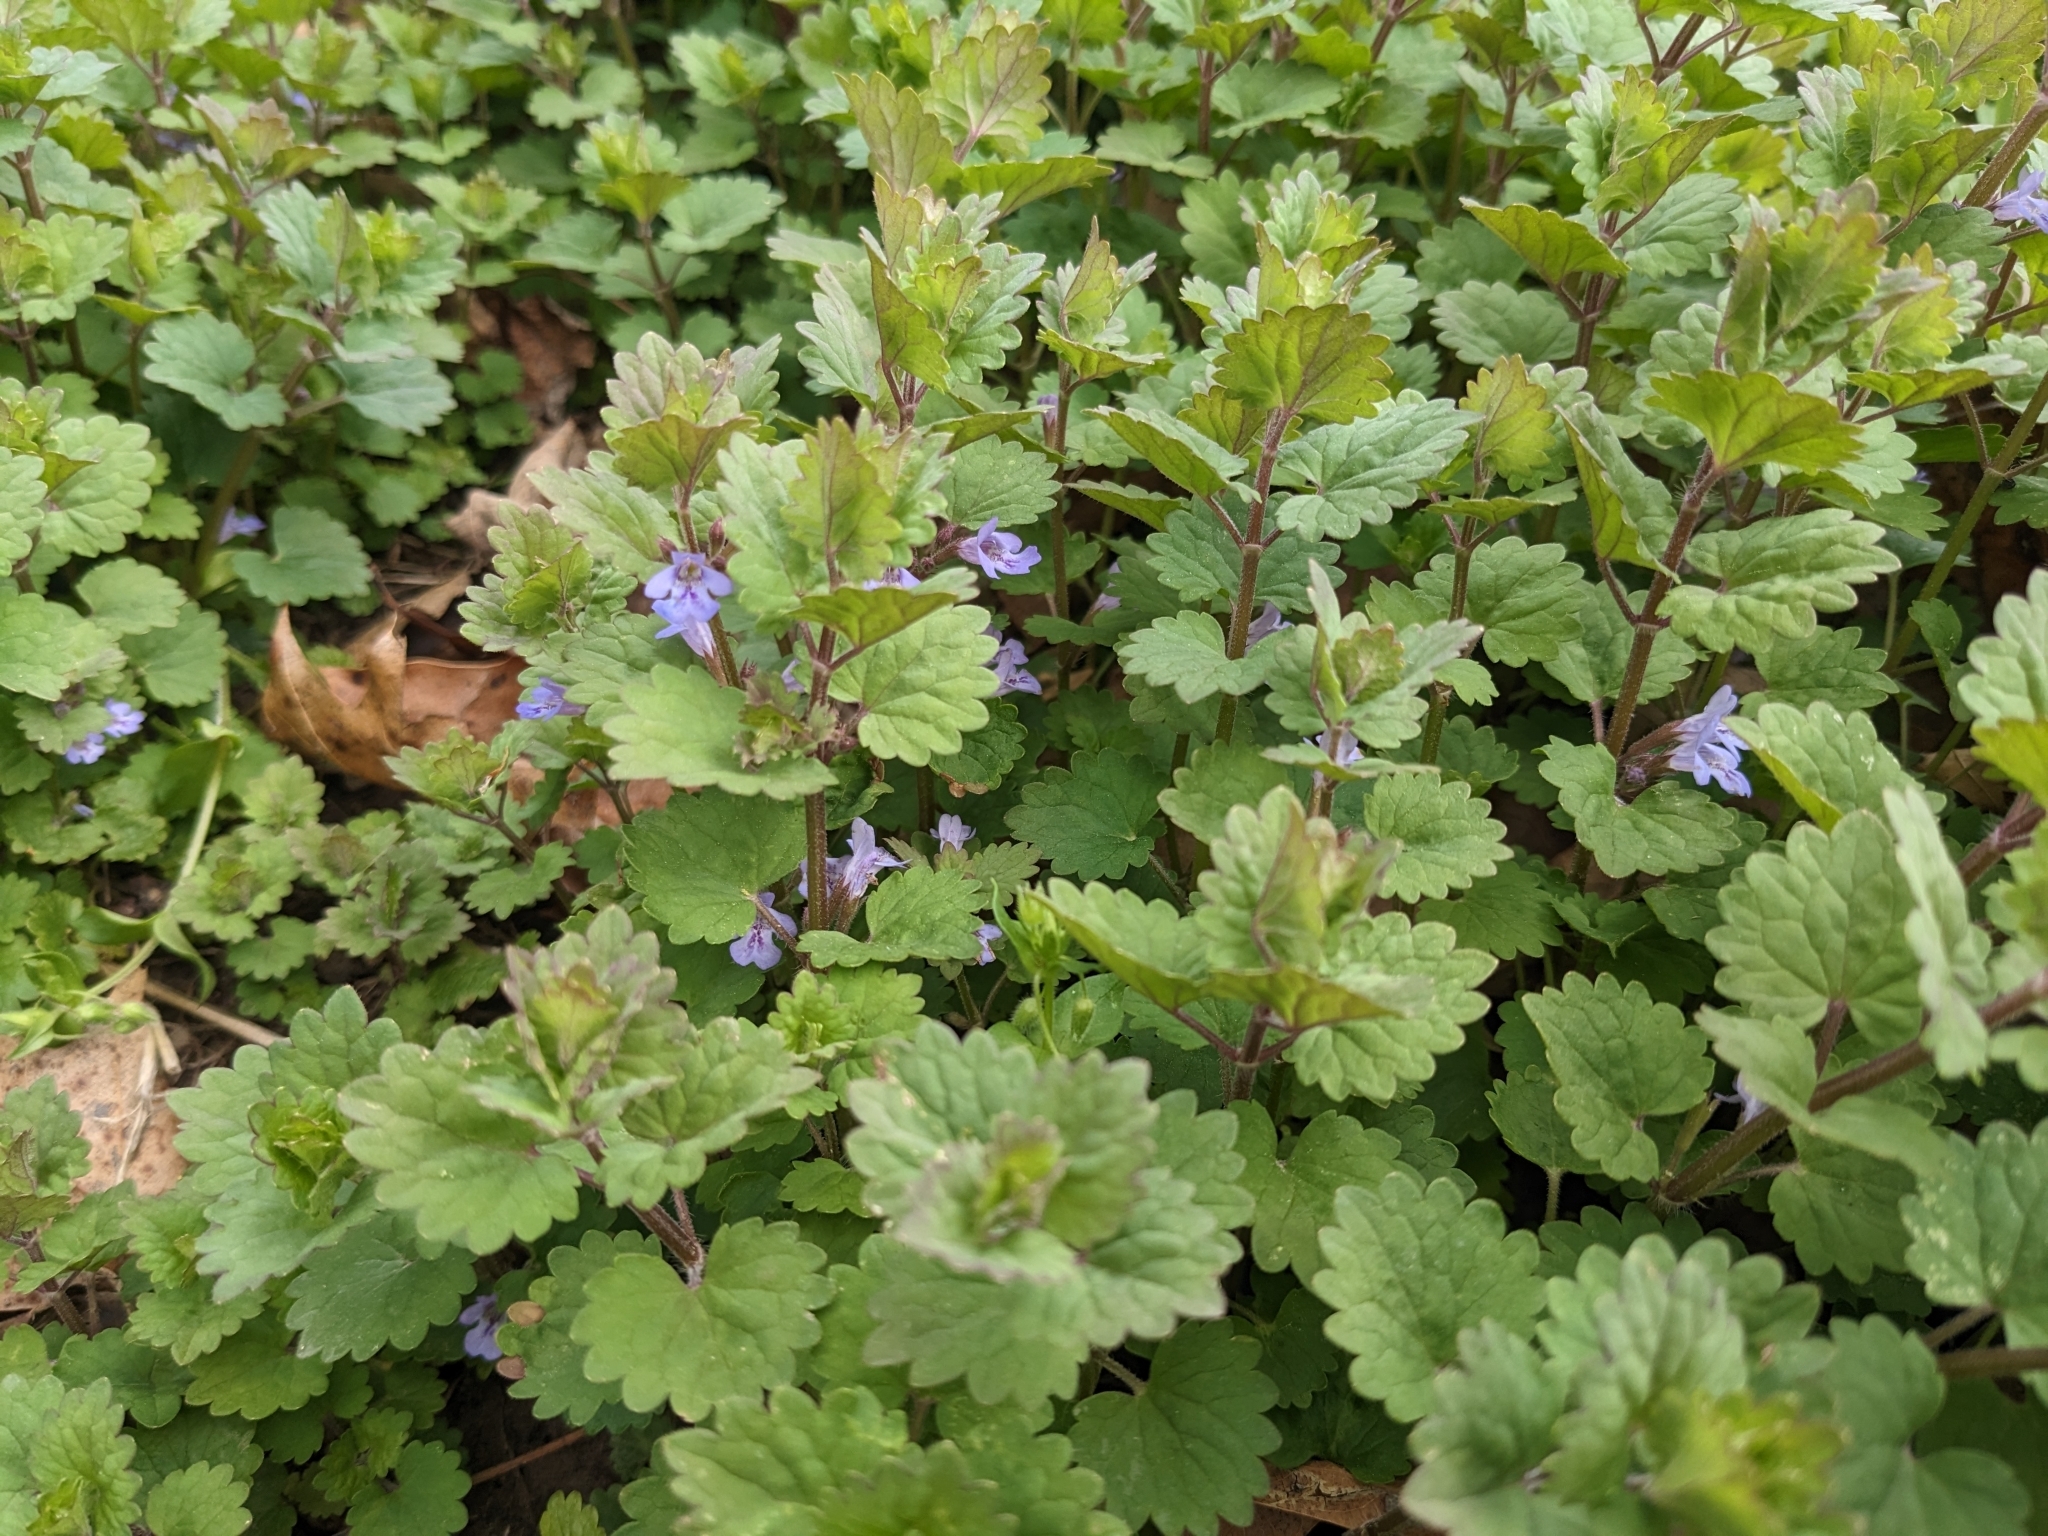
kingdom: Plantae
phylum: Tracheophyta
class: Magnoliopsida
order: Lamiales
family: Lamiaceae
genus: Glechoma
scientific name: Glechoma hederacea
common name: Ground ivy
